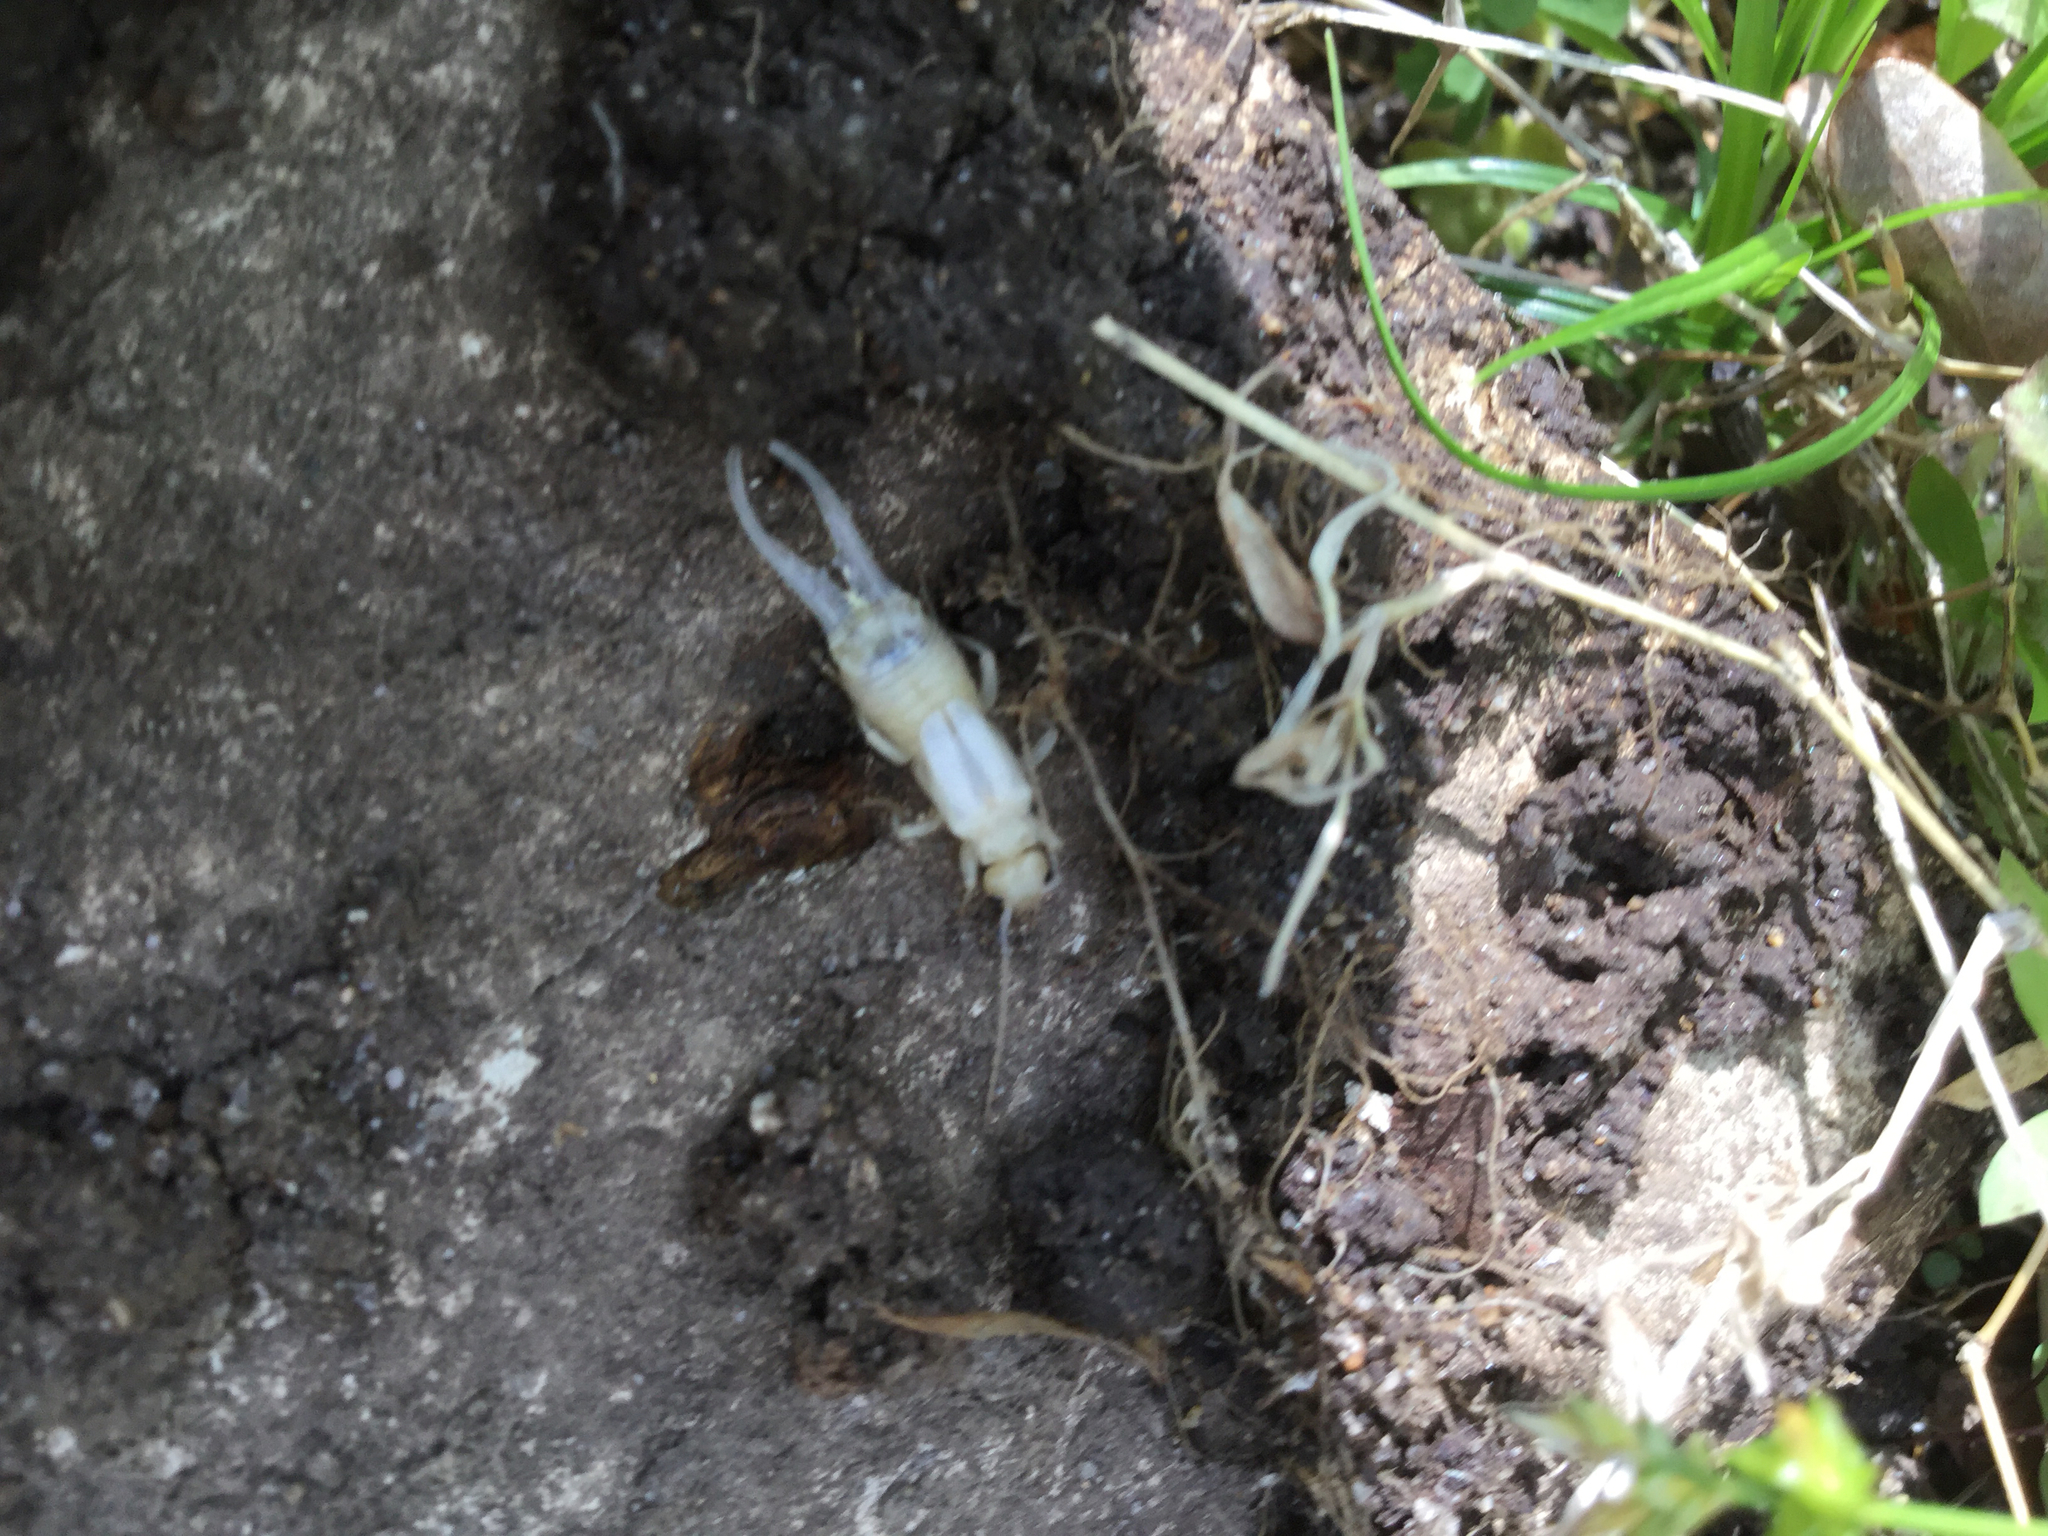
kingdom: Animalia
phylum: Arthropoda
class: Insecta
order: Dermaptera
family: Forficulidae
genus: Forficula
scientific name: Forficula
